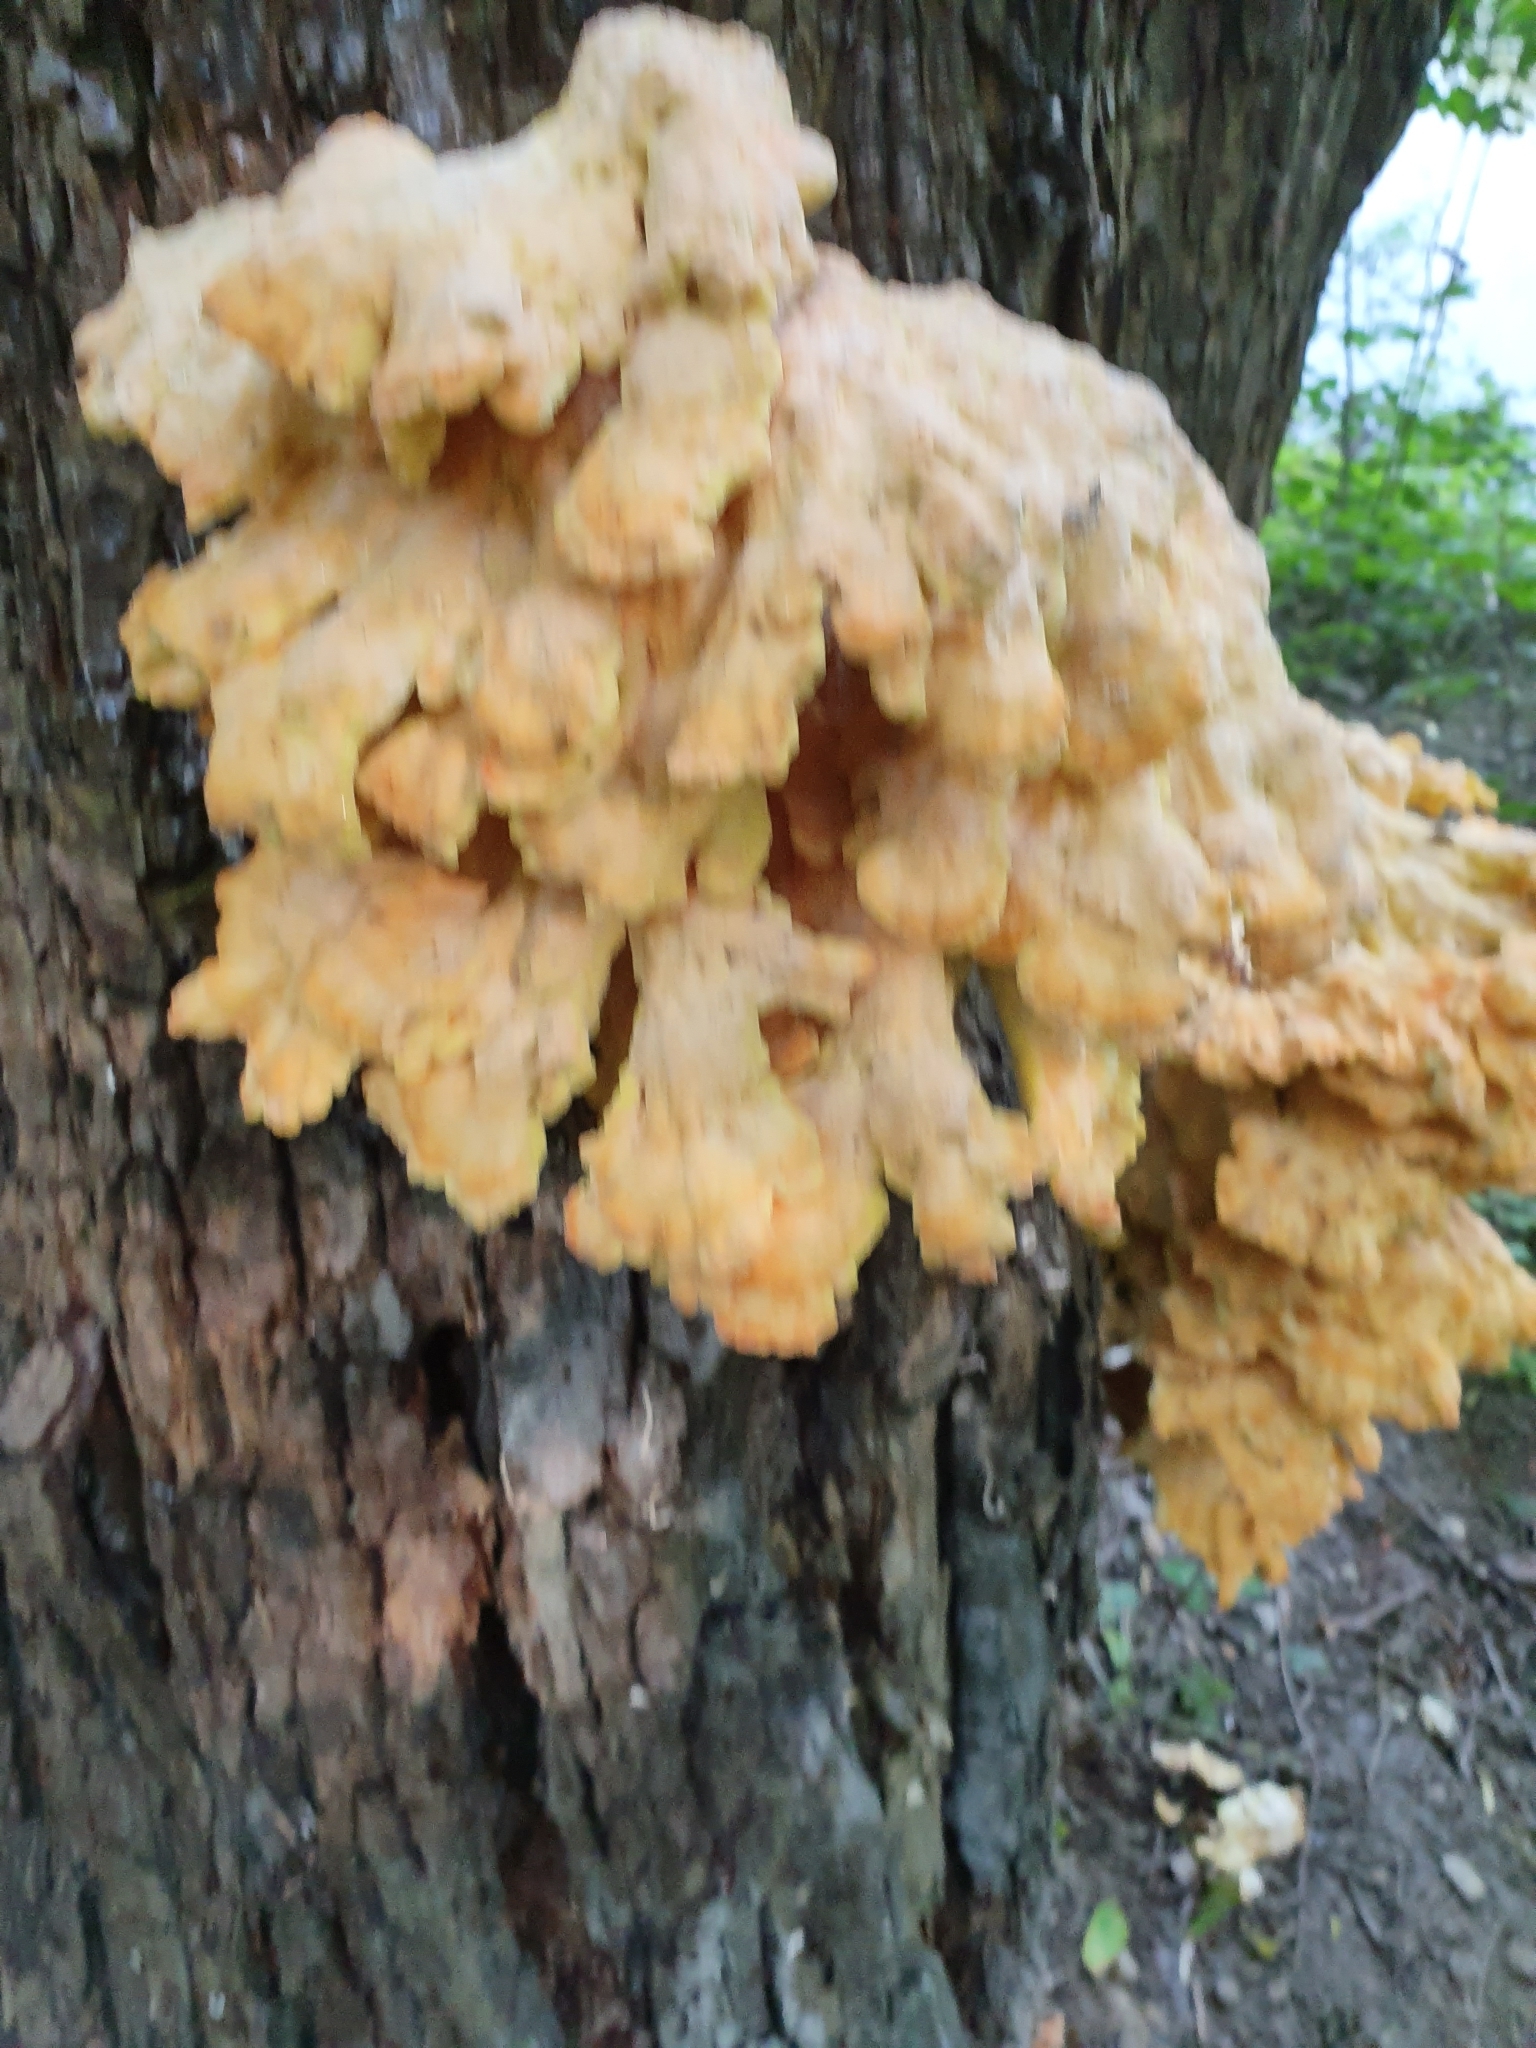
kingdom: Fungi
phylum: Basidiomycota
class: Agaricomycetes
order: Polyporales
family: Laetiporaceae
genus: Laetiporus
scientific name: Laetiporus sulphureus
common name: Chicken of the woods
